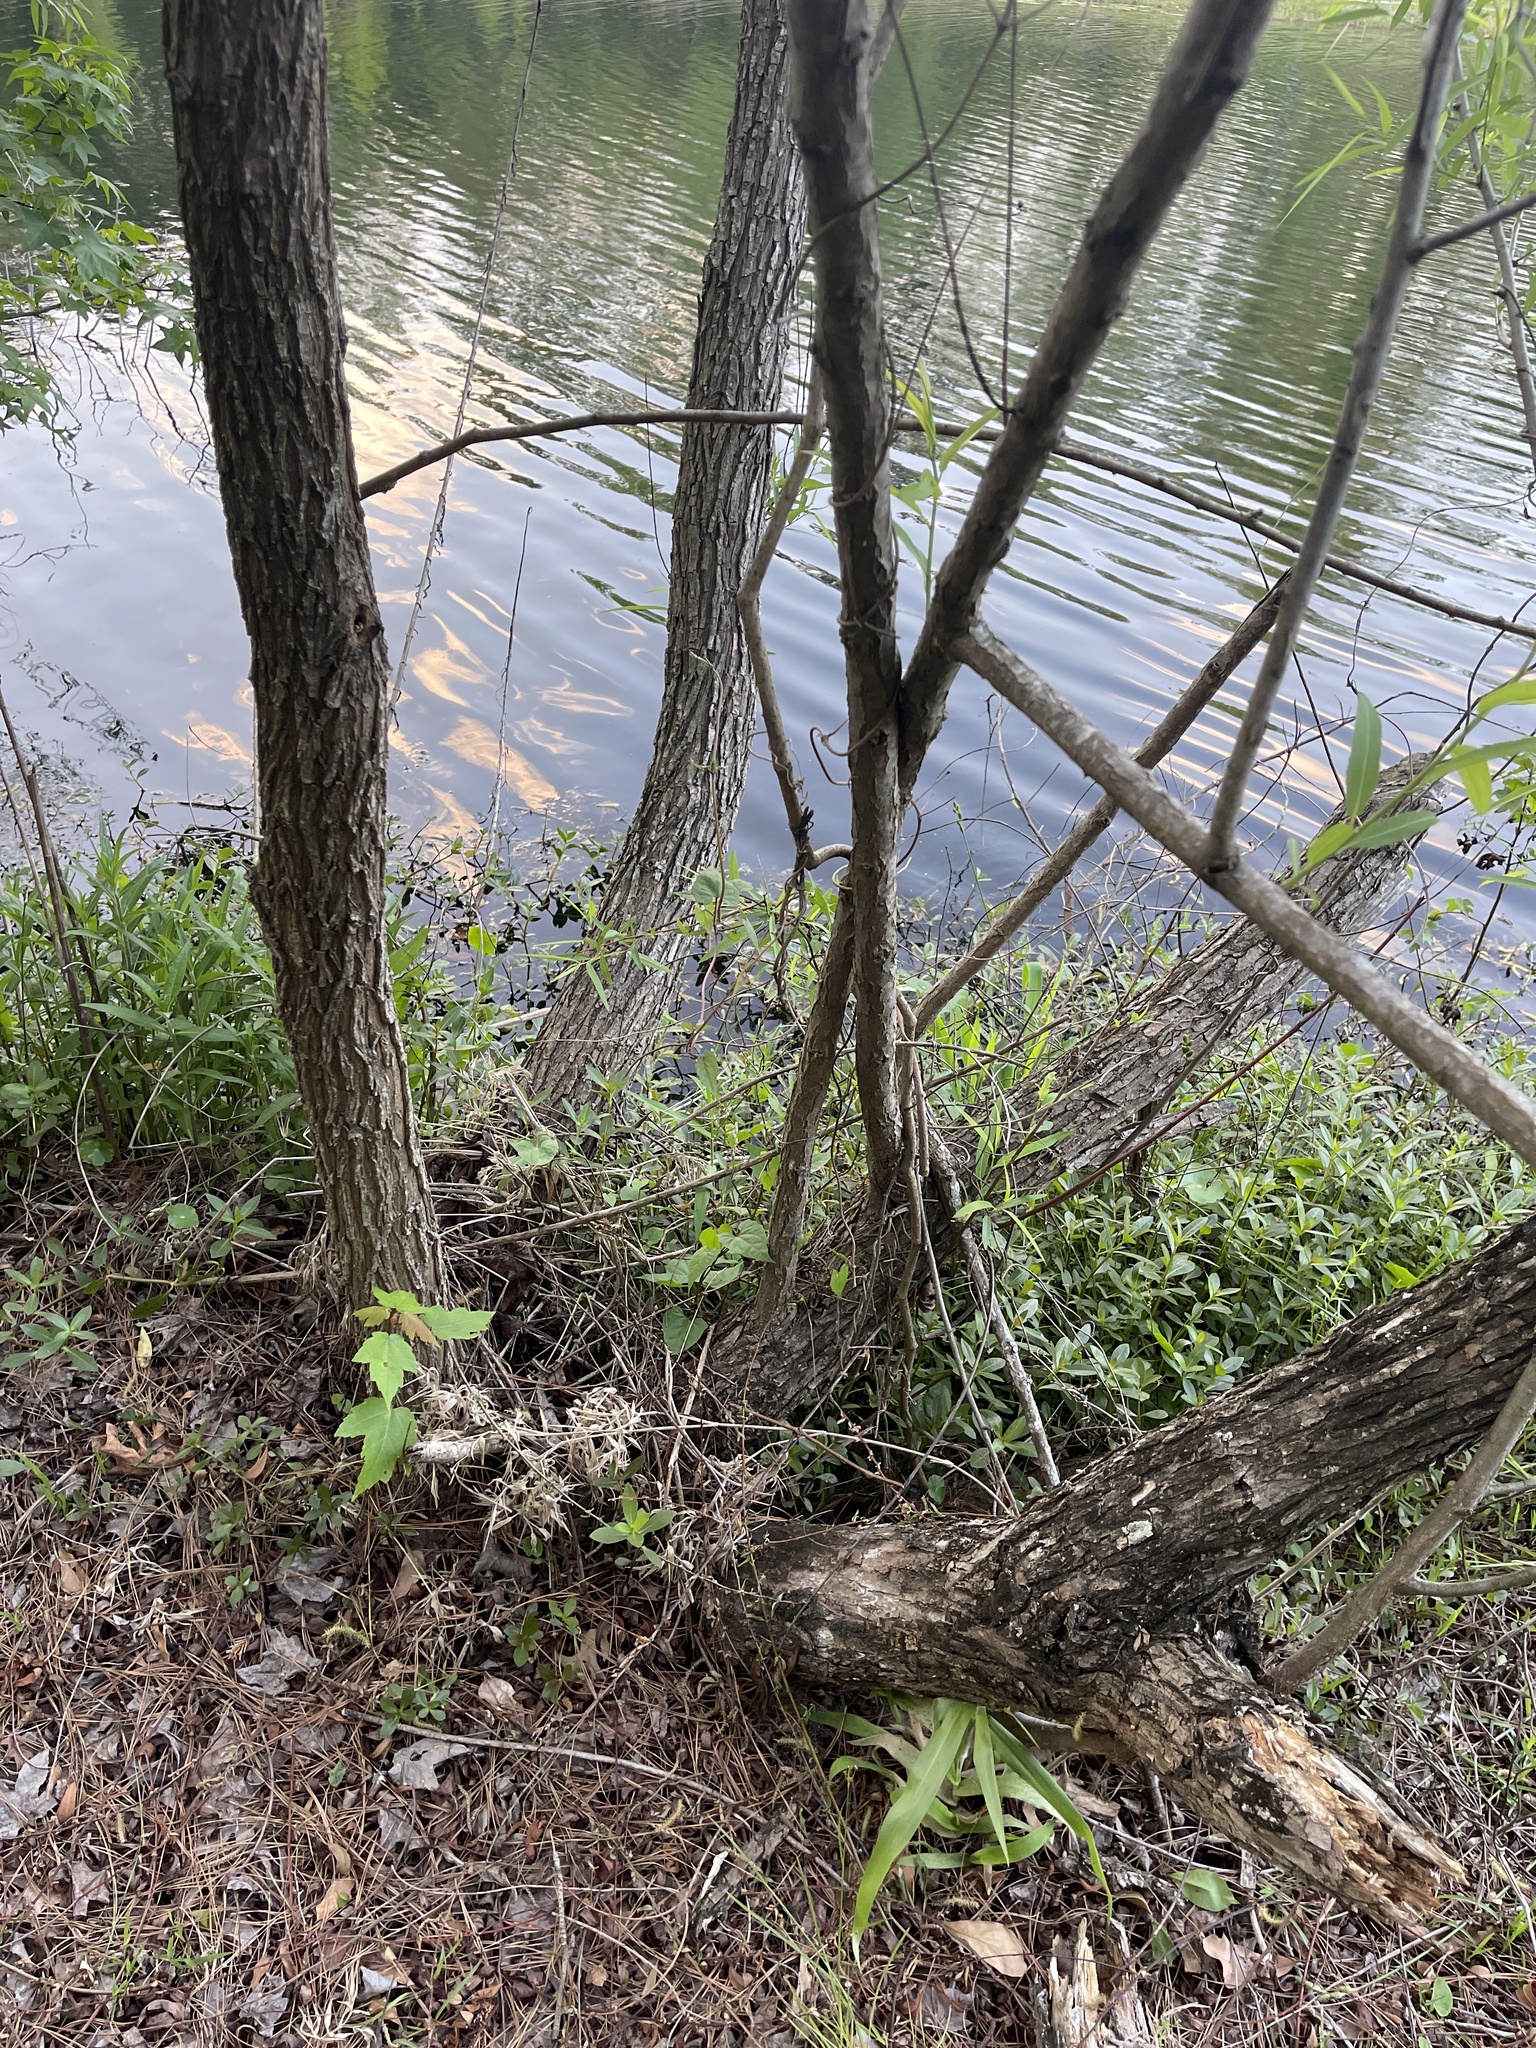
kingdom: Plantae
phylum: Tracheophyta
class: Magnoliopsida
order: Malpighiales
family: Salicaceae
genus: Salix
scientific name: Salix nigra
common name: Black willow
